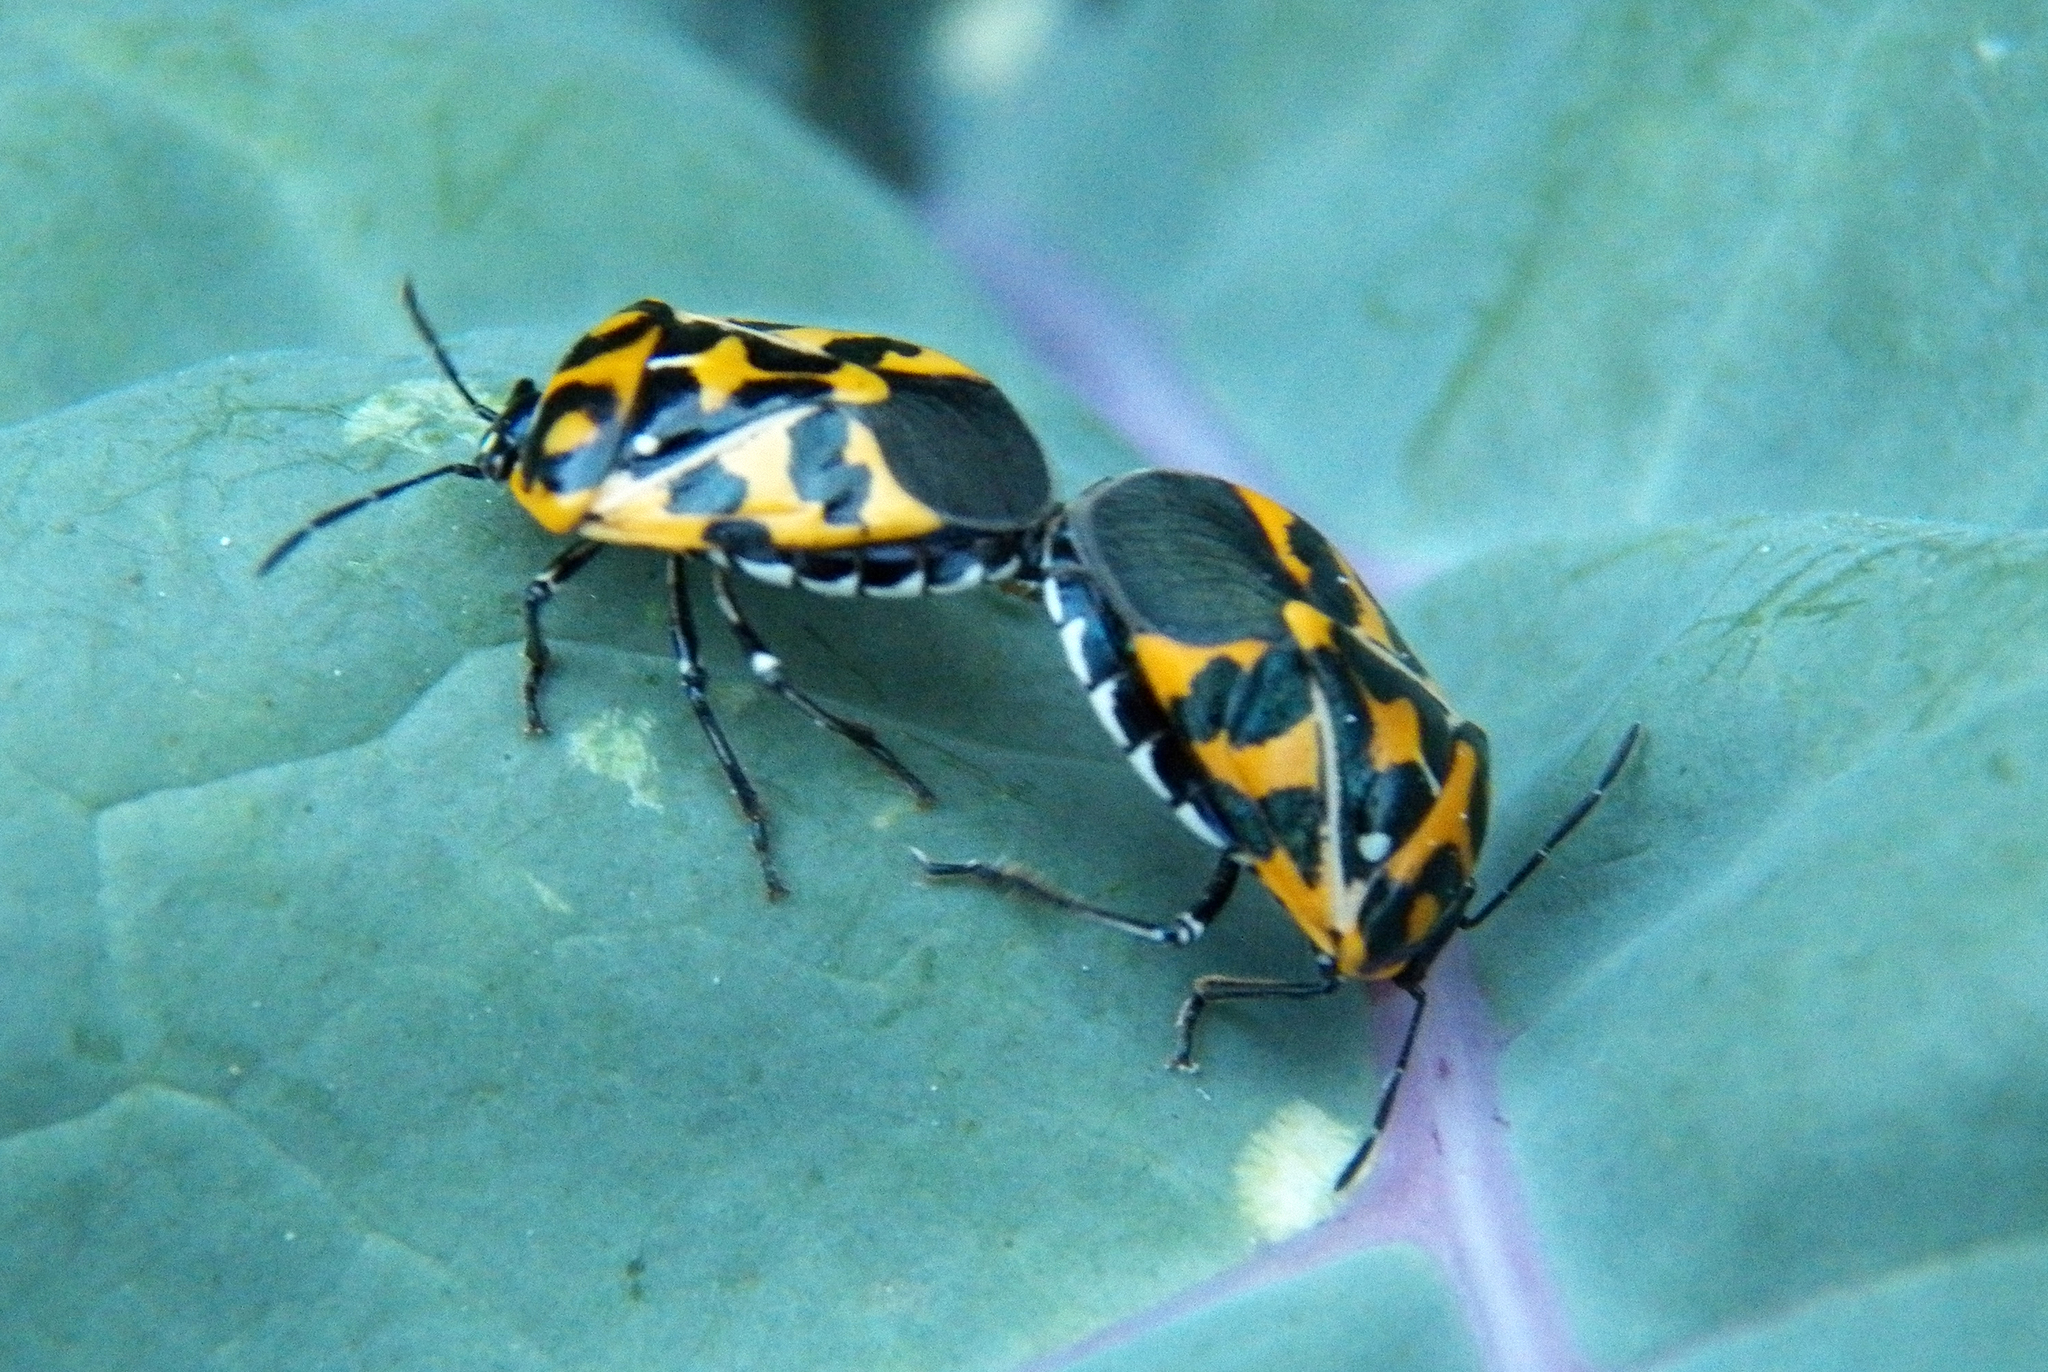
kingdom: Animalia
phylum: Arthropoda
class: Insecta
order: Hemiptera
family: Pentatomidae
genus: Murgantia
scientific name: Murgantia histrionica
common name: Harlequin bug
